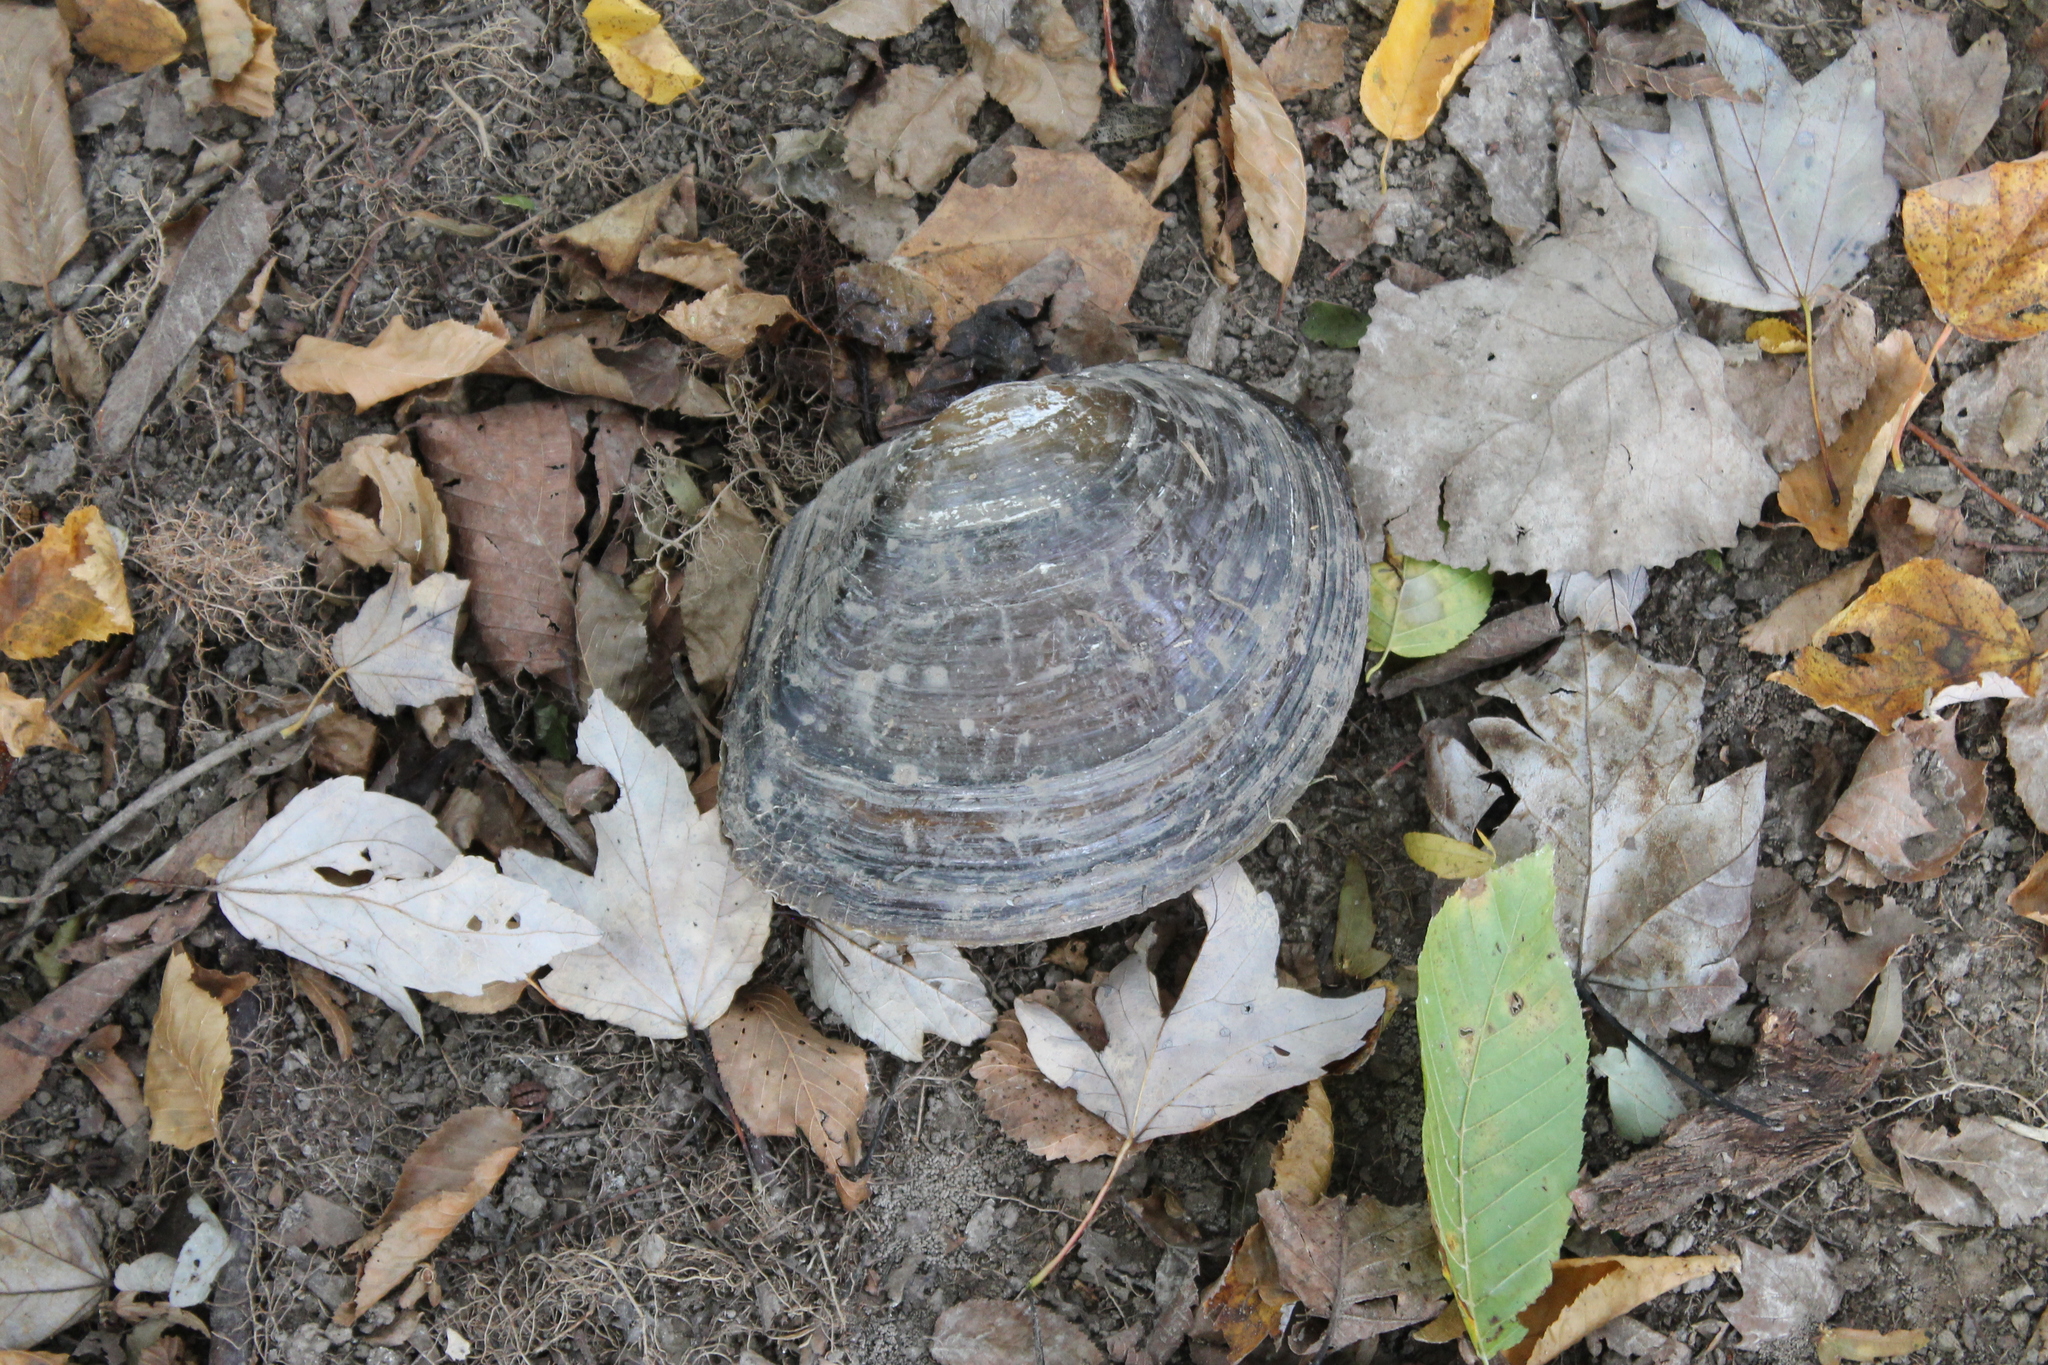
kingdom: Animalia
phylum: Mollusca
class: Bivalvia
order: Unionida
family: Unionidae
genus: Utterbackiana
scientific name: Utterbackiana suborbiculata
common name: Flat floater
